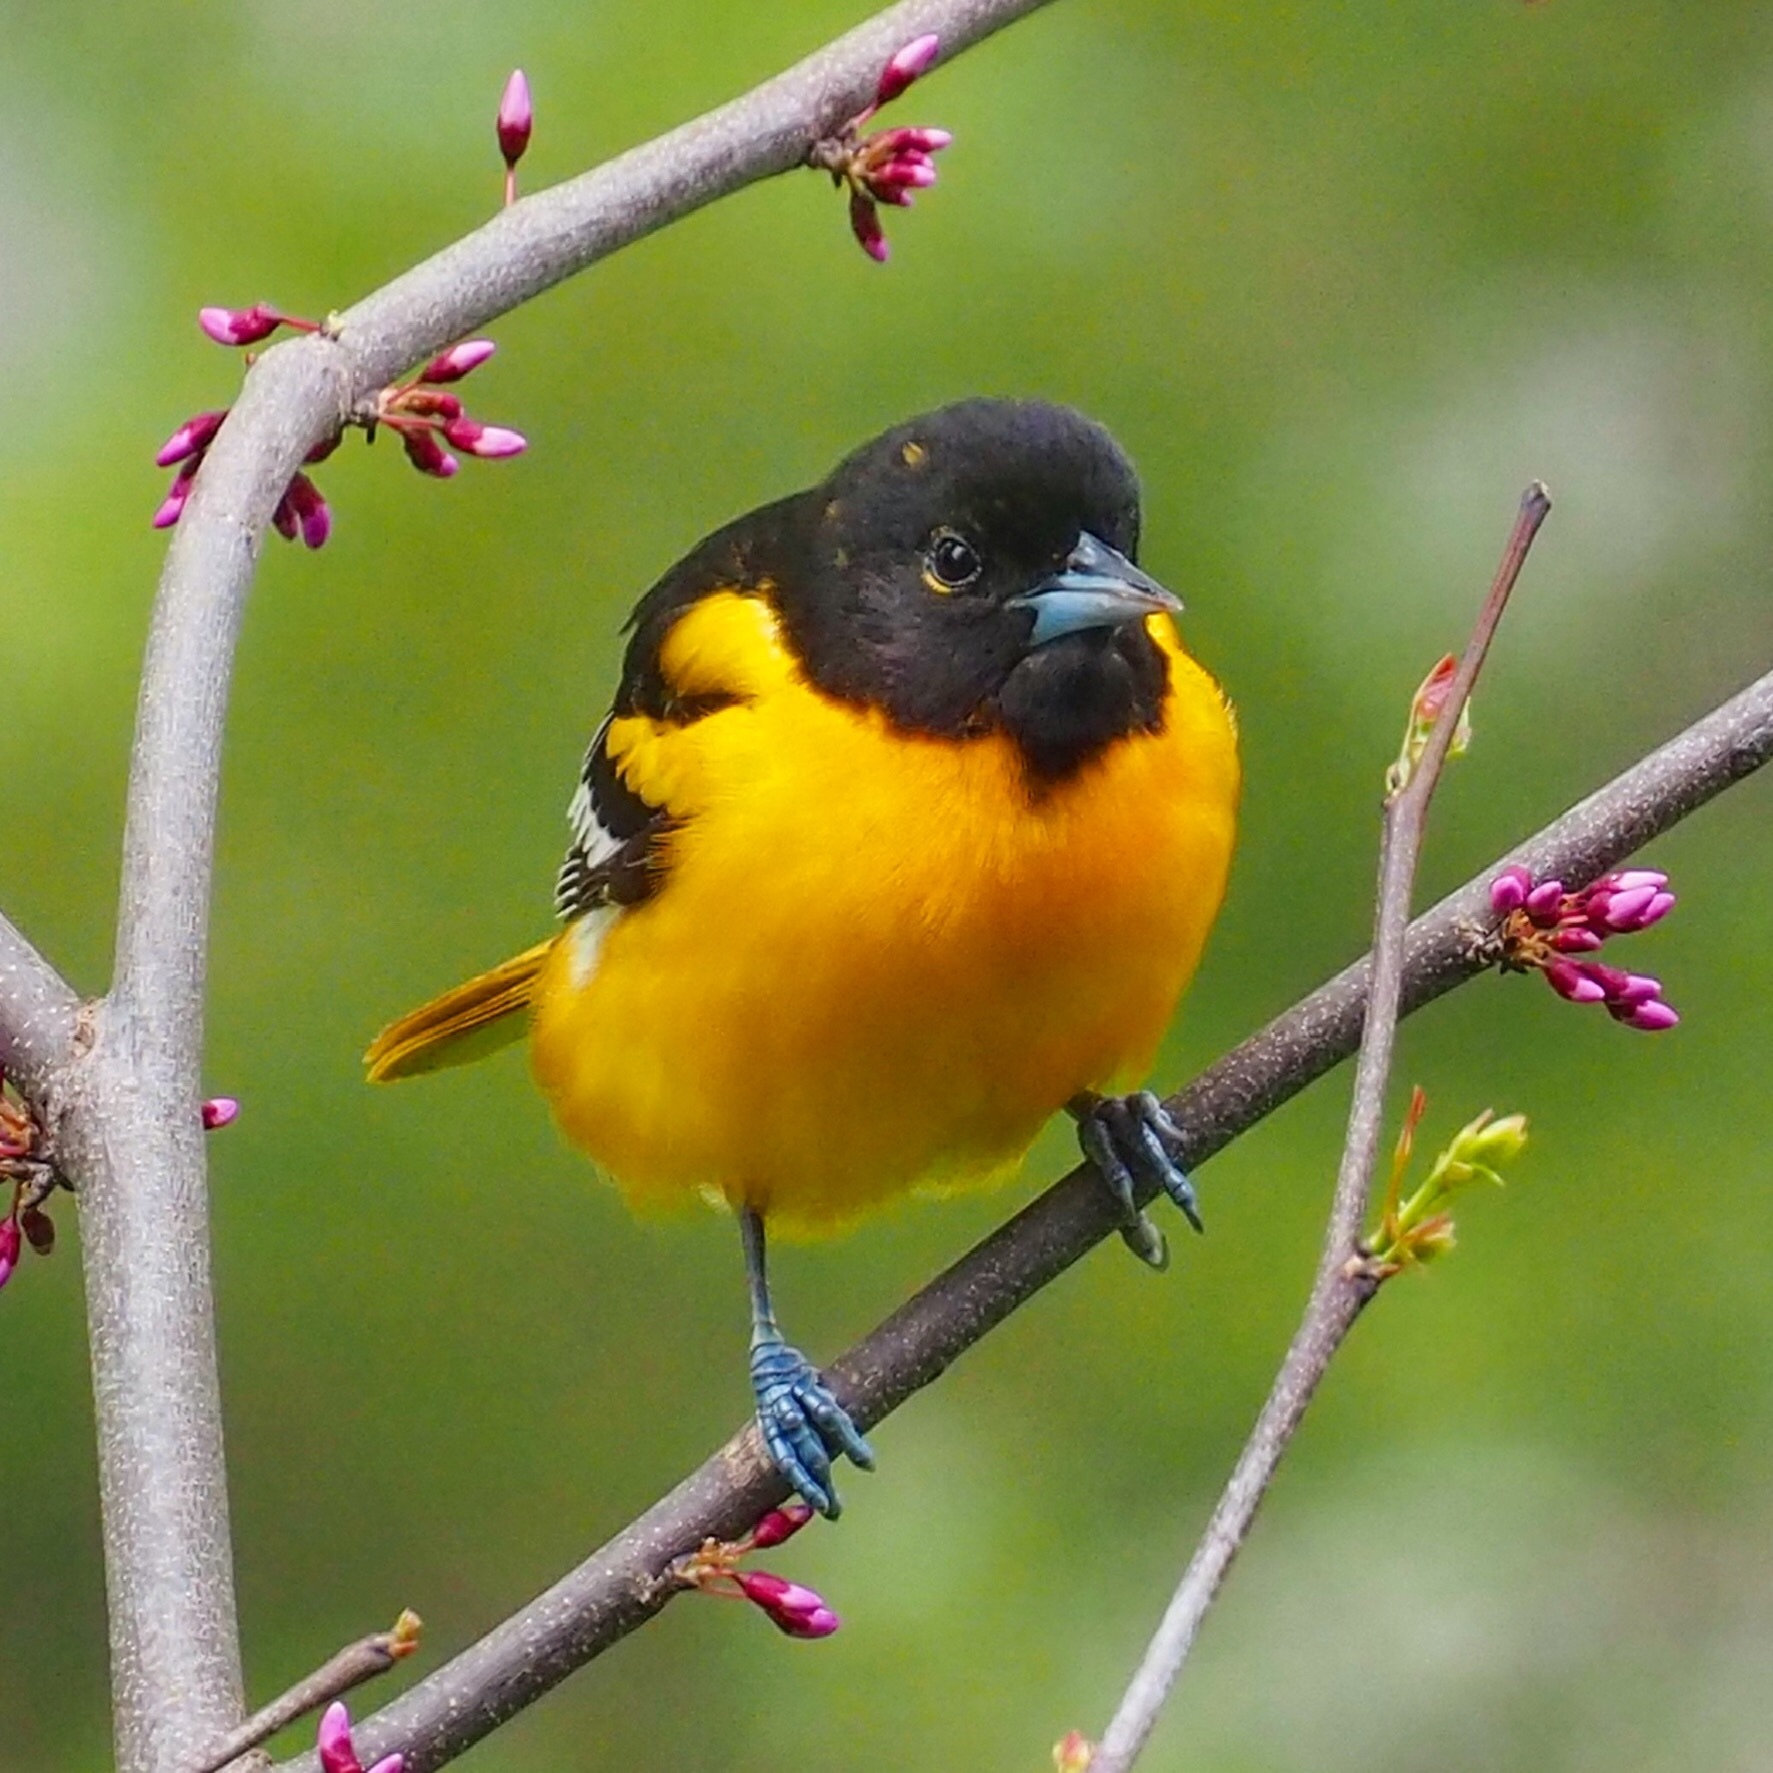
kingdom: Animalia
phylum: Chordata
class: Aves
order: Passeriformes
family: Icteridae
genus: Icterus
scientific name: Icterus galbula
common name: Baltimore oriole
